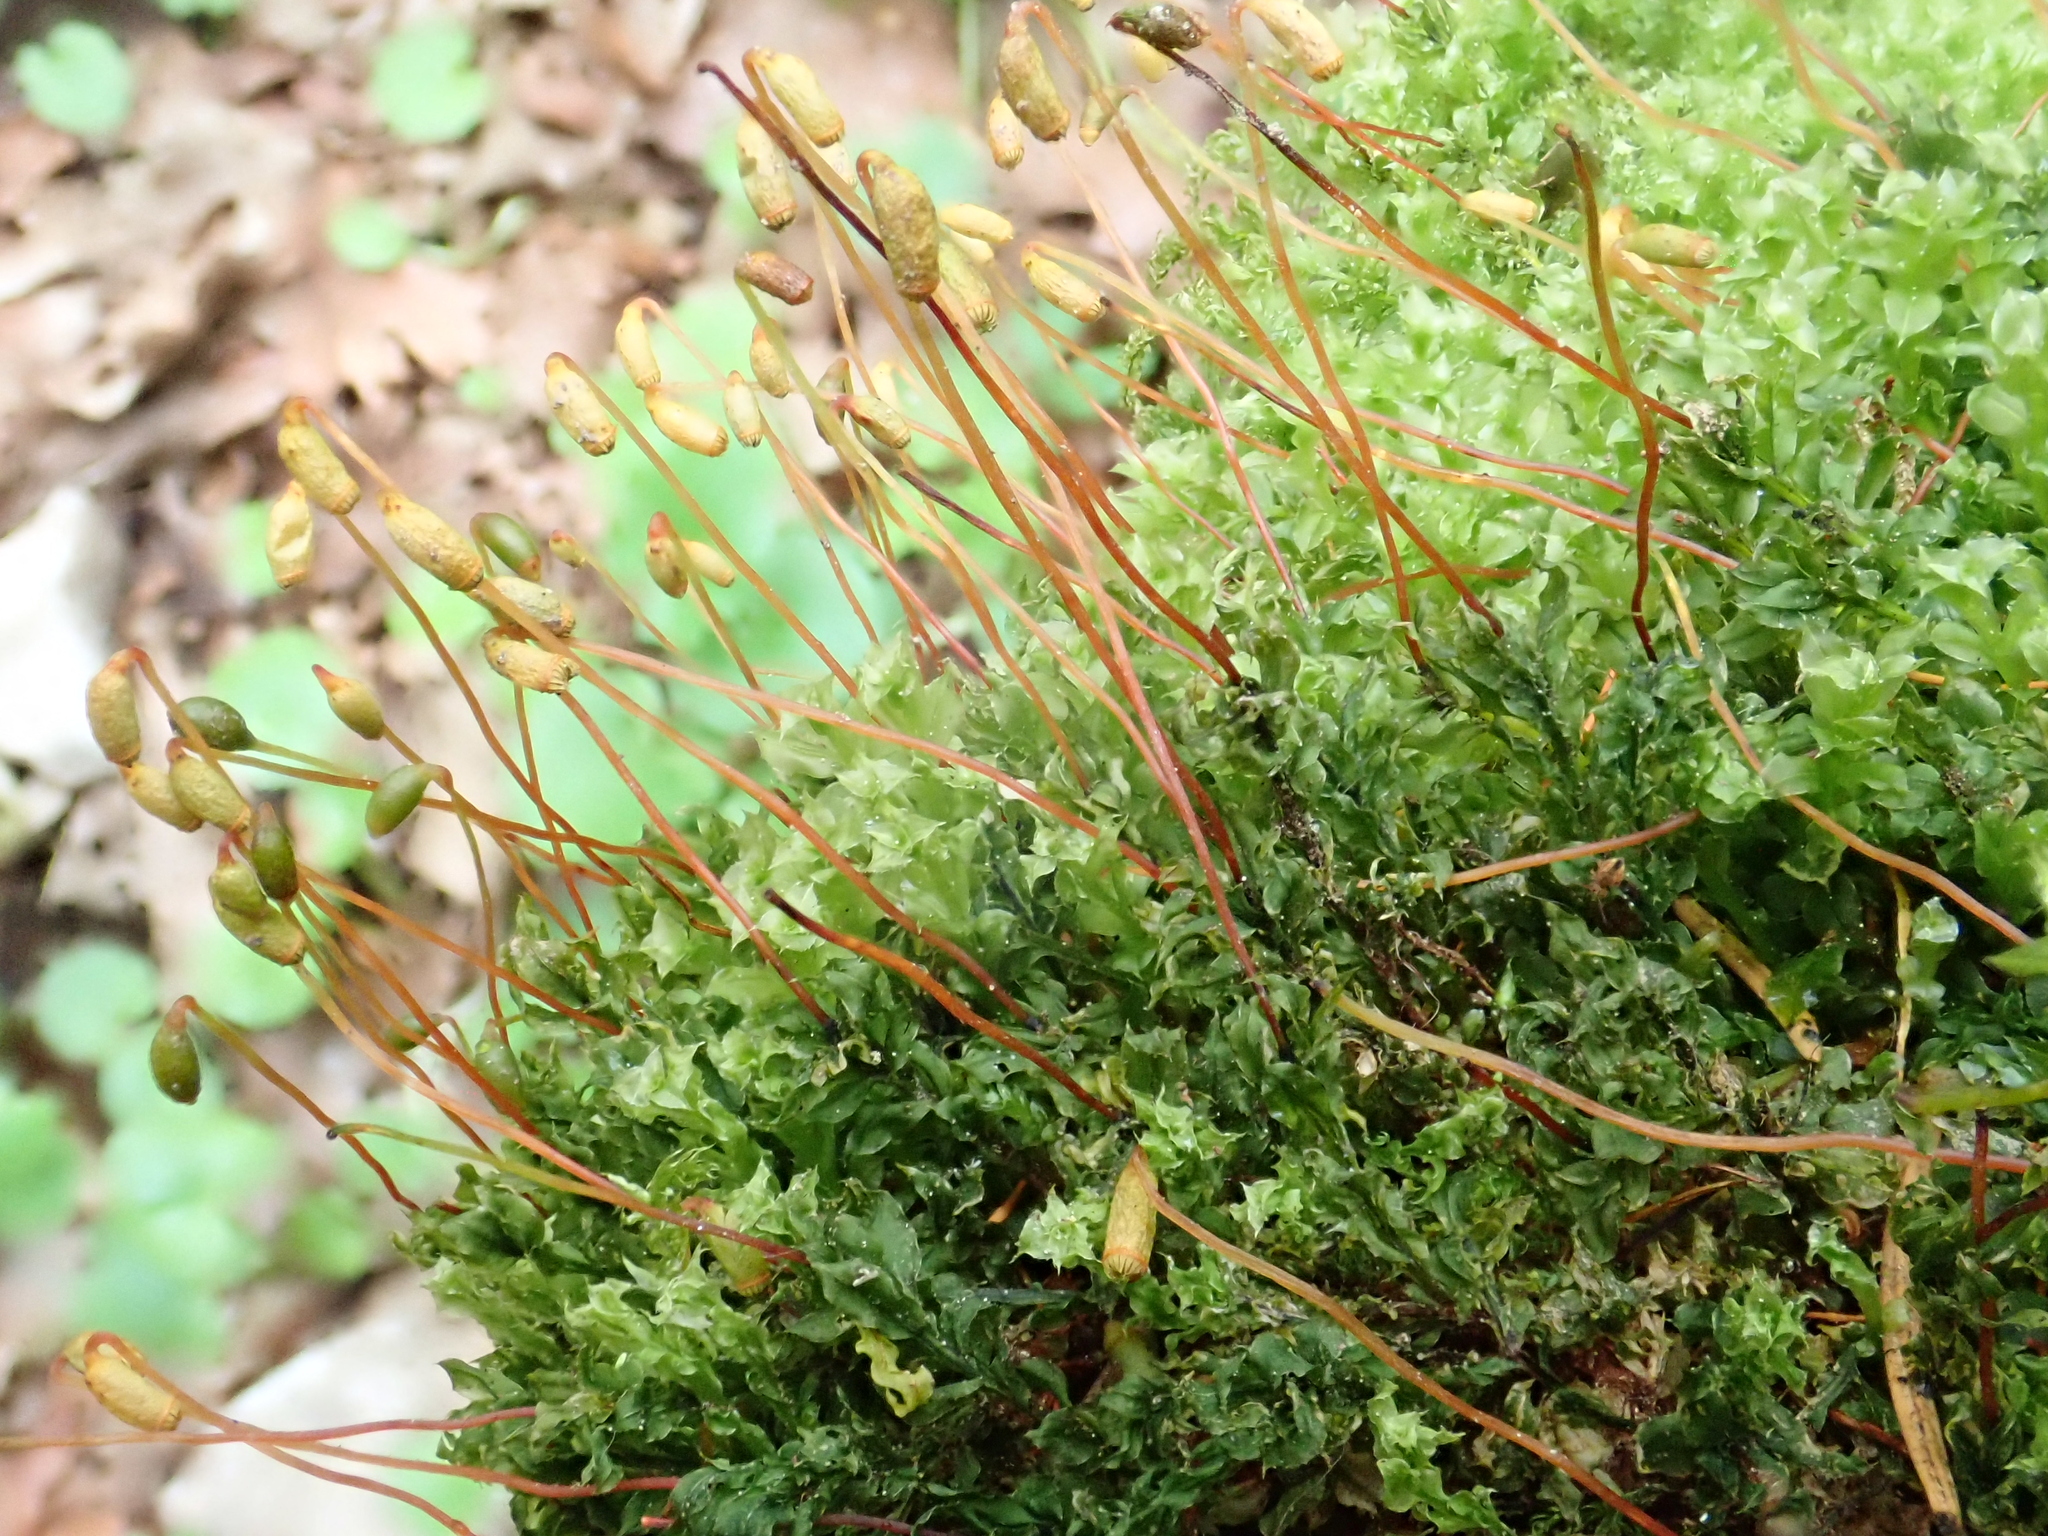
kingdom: Plantae
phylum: Bryophyta
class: Bryopsida
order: Bryales
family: Mniaceae
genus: Plagiomnium
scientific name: Plagiomnium cuspidatum
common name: Woodsy leafy moss
